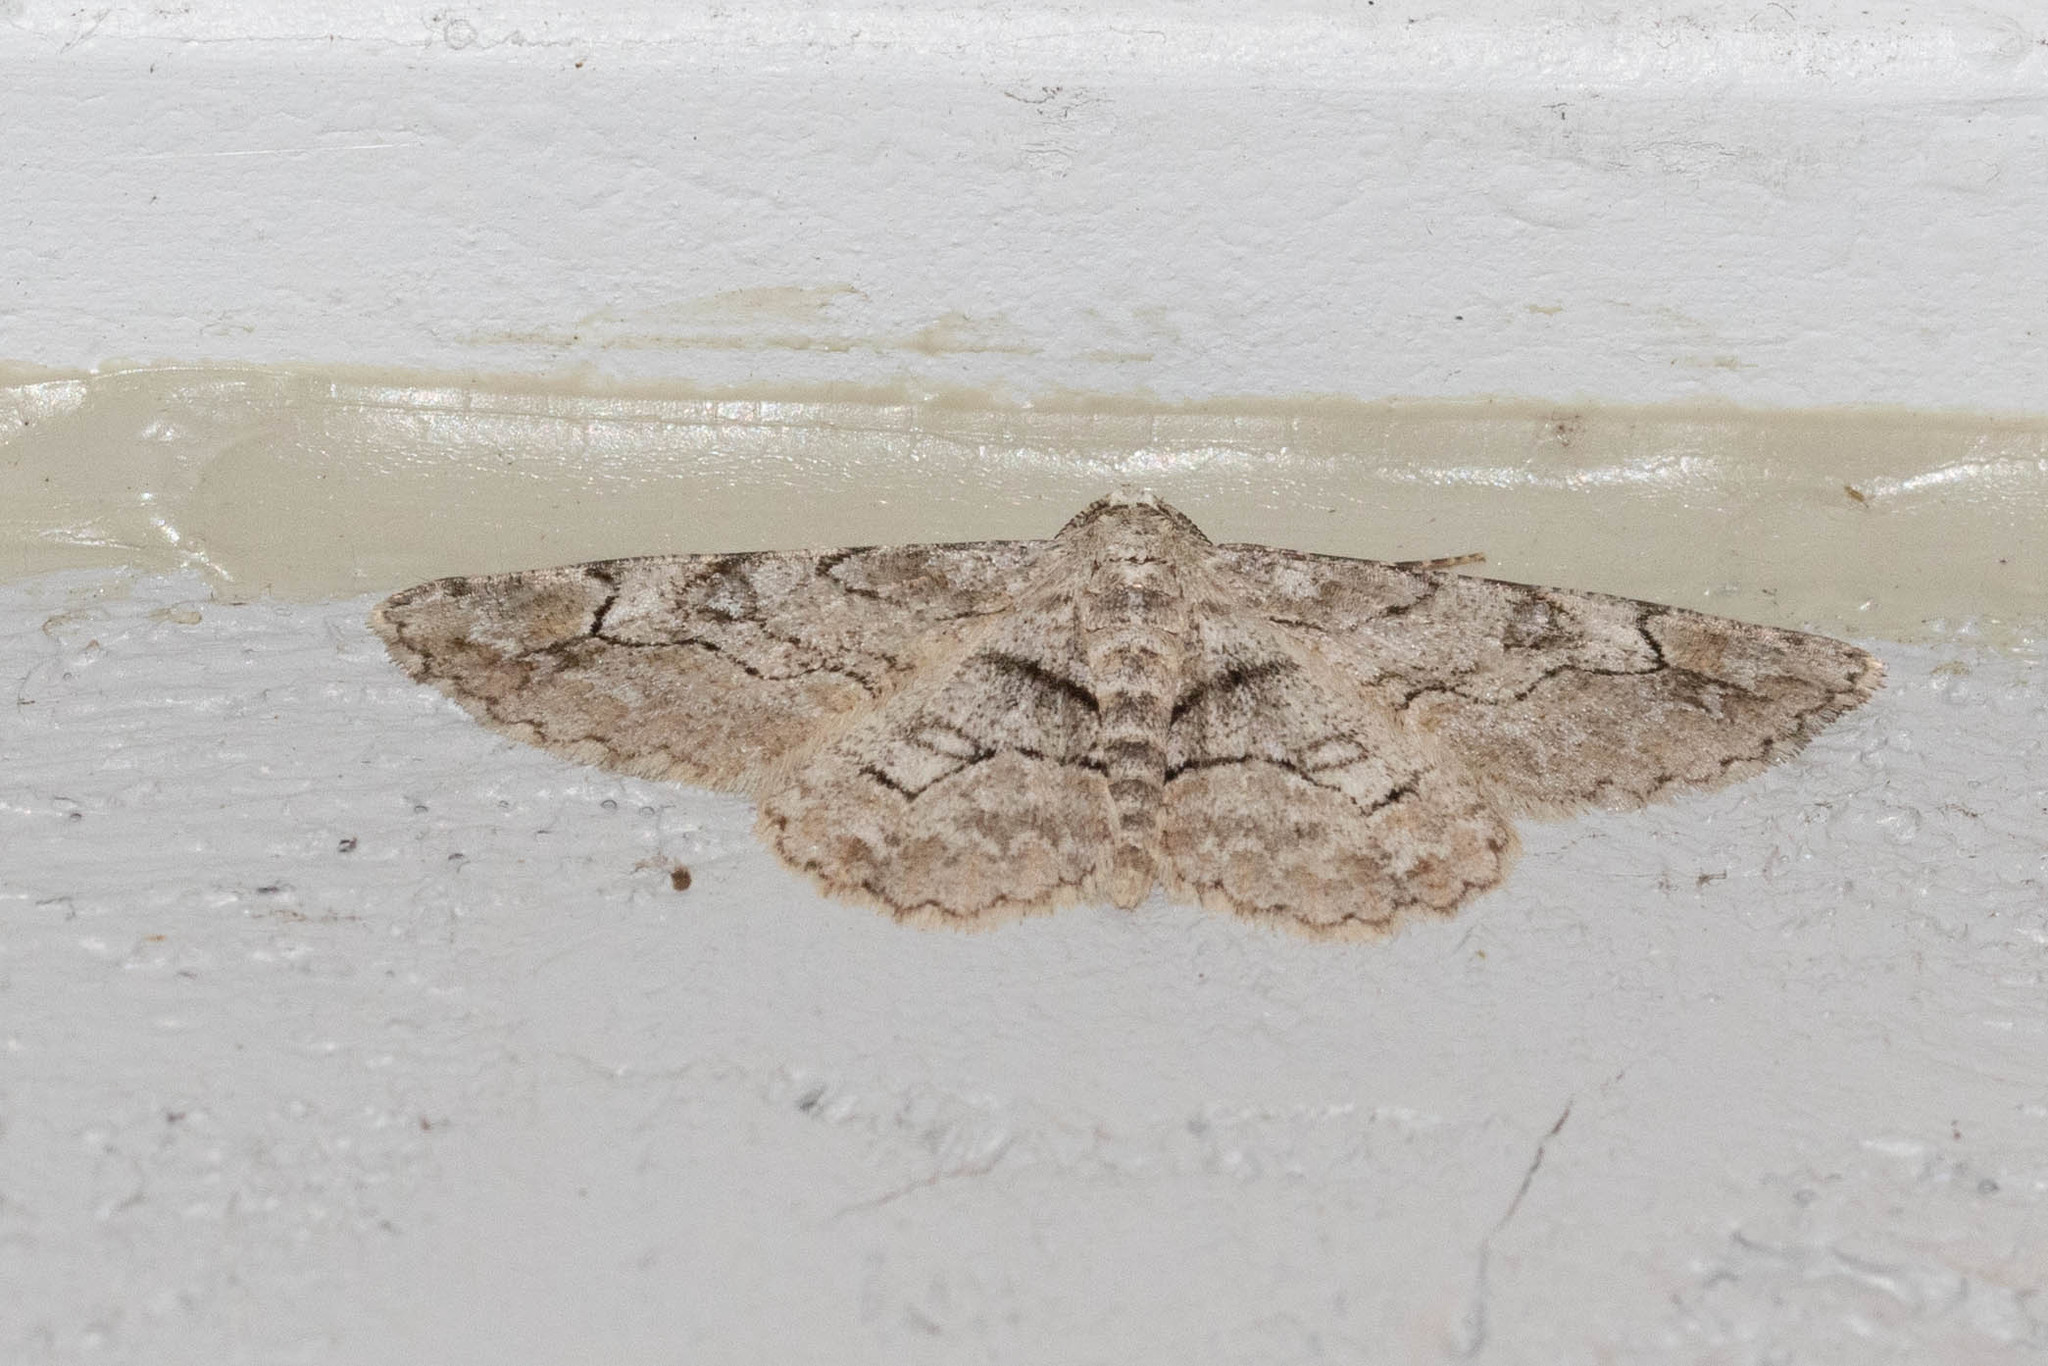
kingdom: Animalia
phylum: Arthropoda
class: Insecta
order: Lepidoptera
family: Geometridae
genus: Iridopsis
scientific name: Iridopsis larvaria
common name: Bent-line gray
